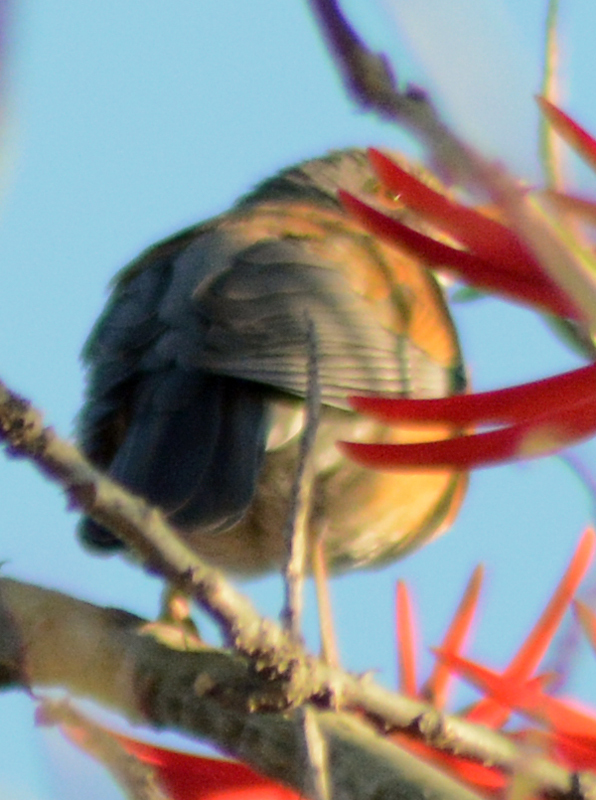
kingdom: Animalia
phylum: Chordata
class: Aves
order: Passeriformes
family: Turdidae
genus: Turdus
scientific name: Turdus rufopalliatus
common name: Rufous-backed robin
